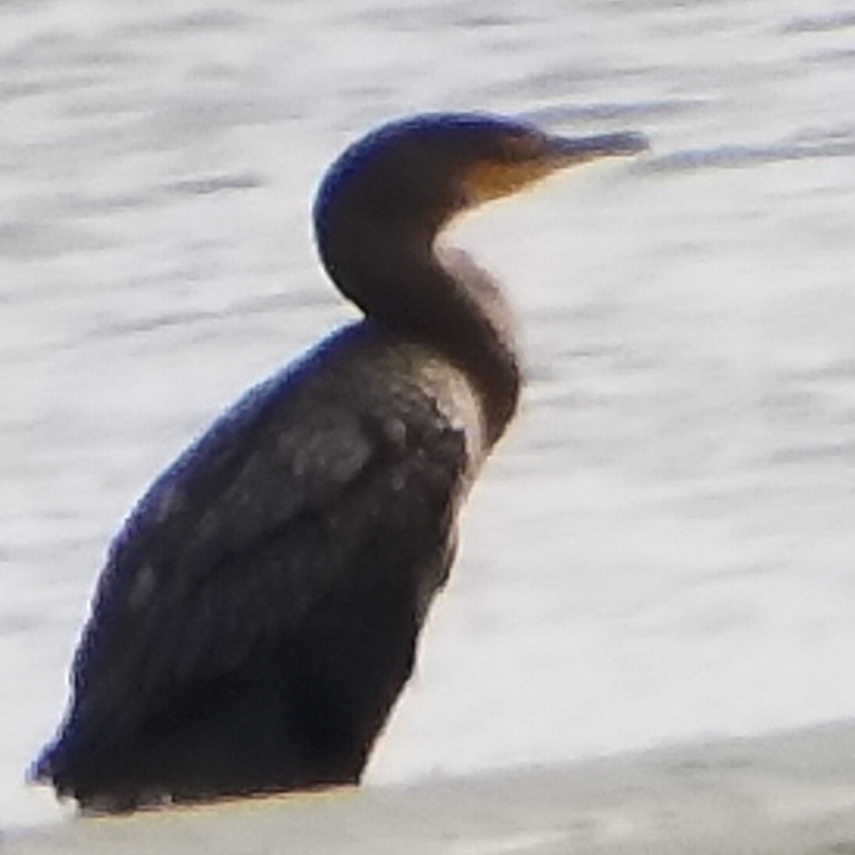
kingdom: Animalia
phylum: Chordata
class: Aves
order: Suliformes
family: Phalacrocoracidae
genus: Phalacrocorax
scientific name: Phalacrocorax auritus
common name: Double-crested cormorant
